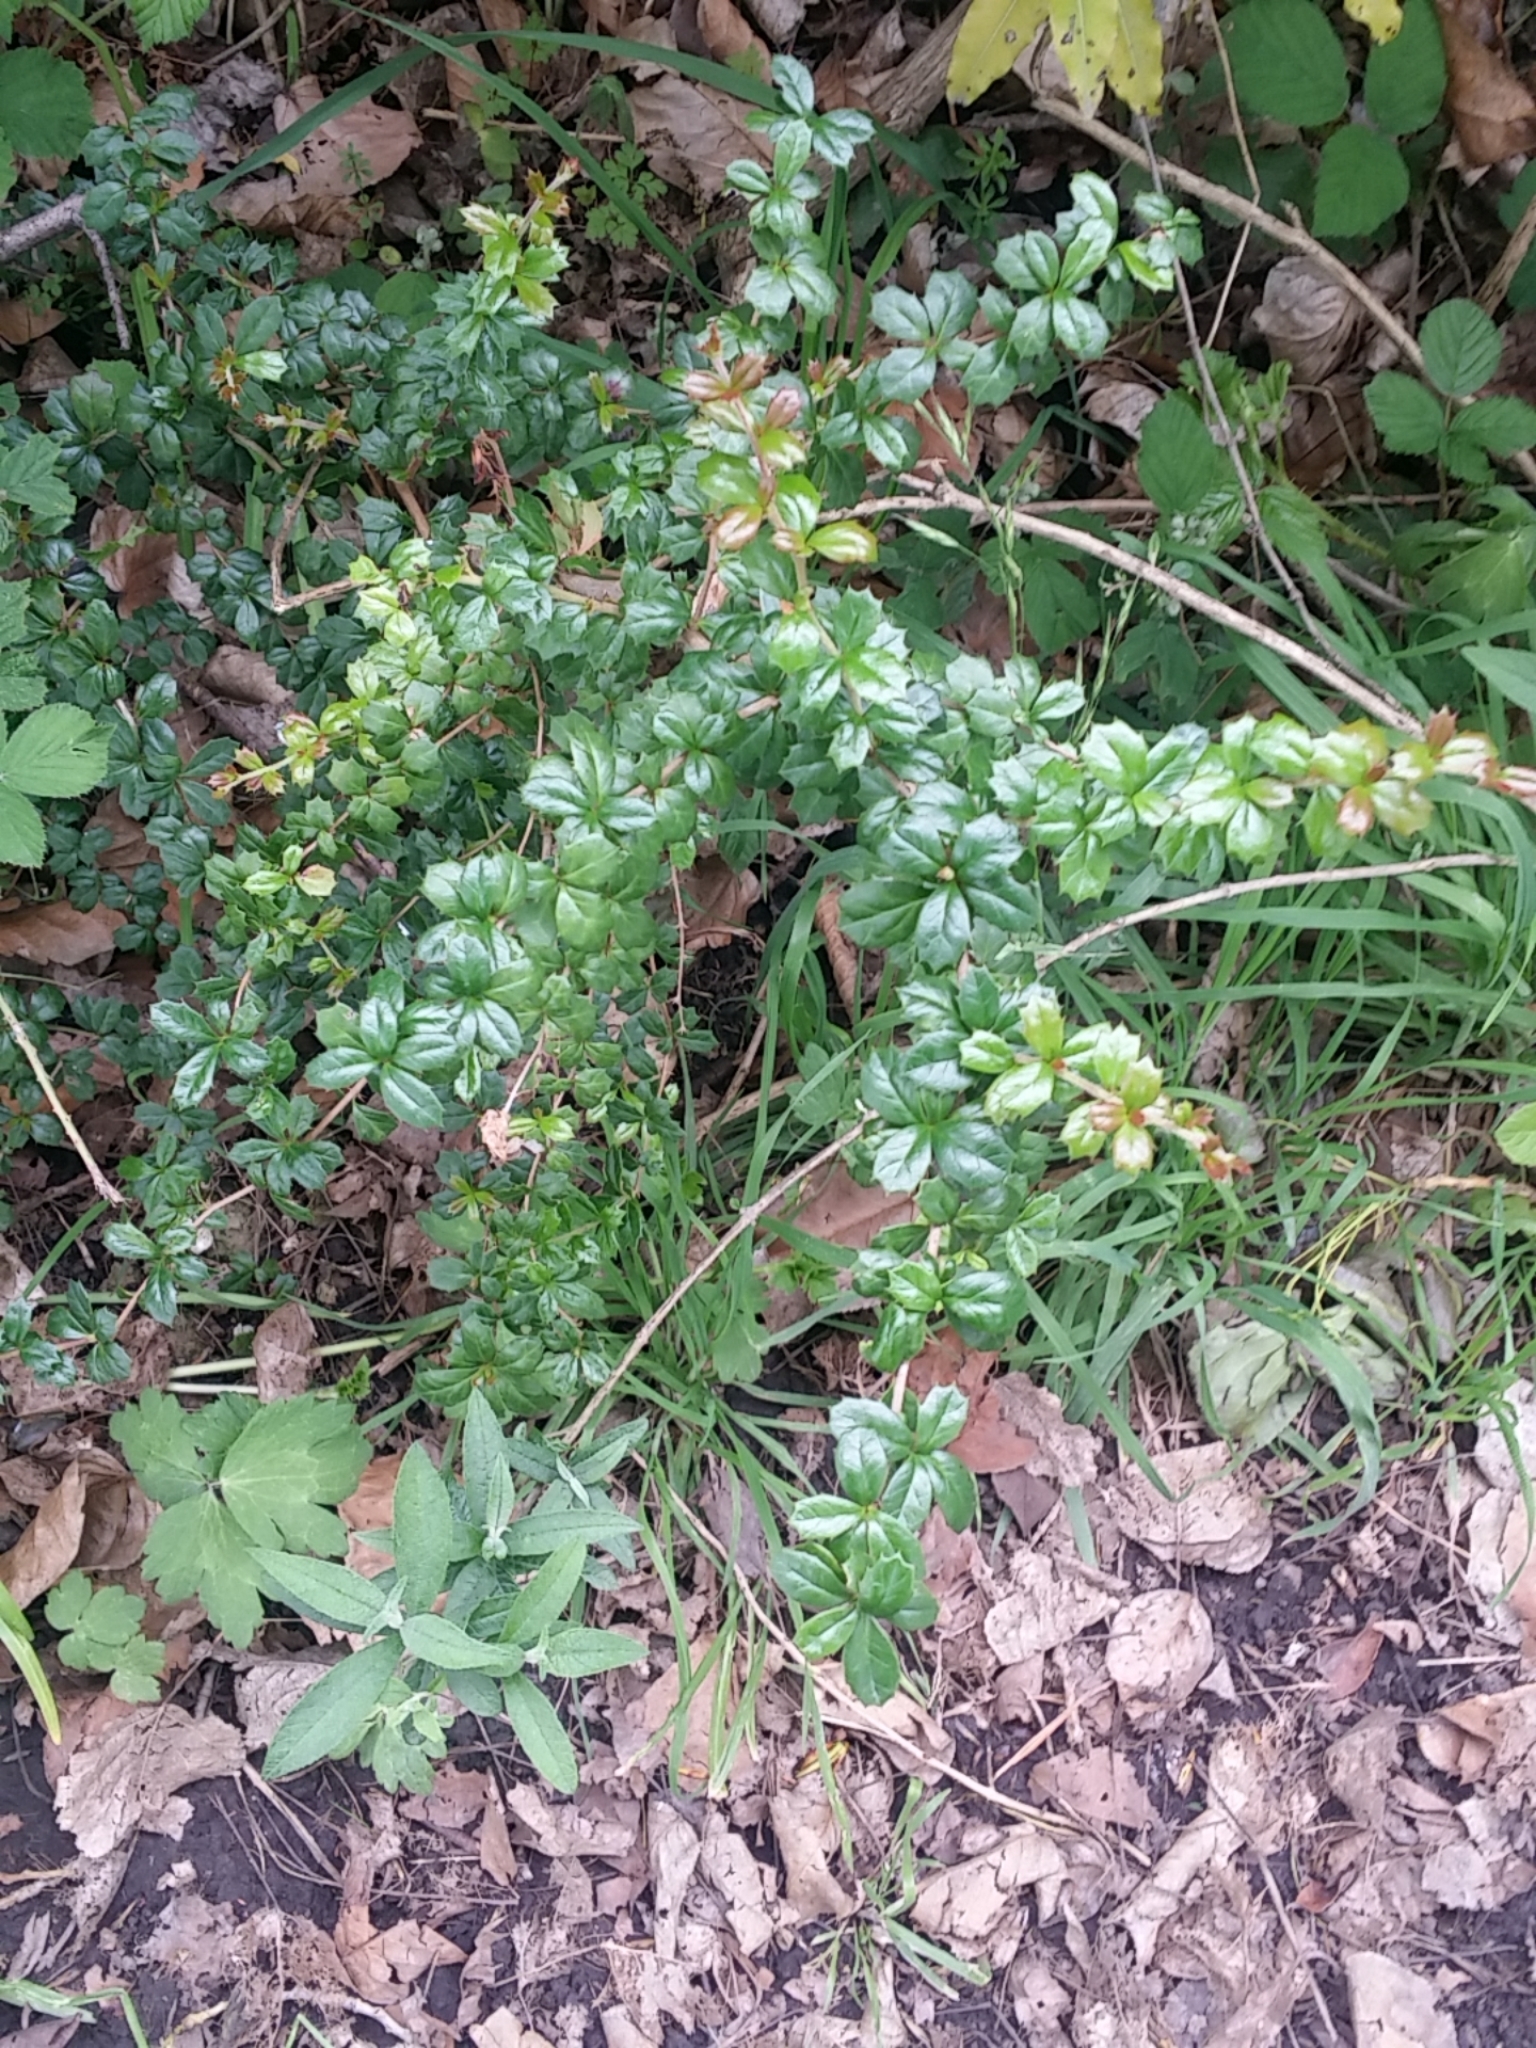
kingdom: Plantae
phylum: Tracheophyta
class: Magnoliopsida
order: Ranunculales
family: Berberidaceae
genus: Berberis
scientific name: Berberis darwinii
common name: Darwin's barberry
